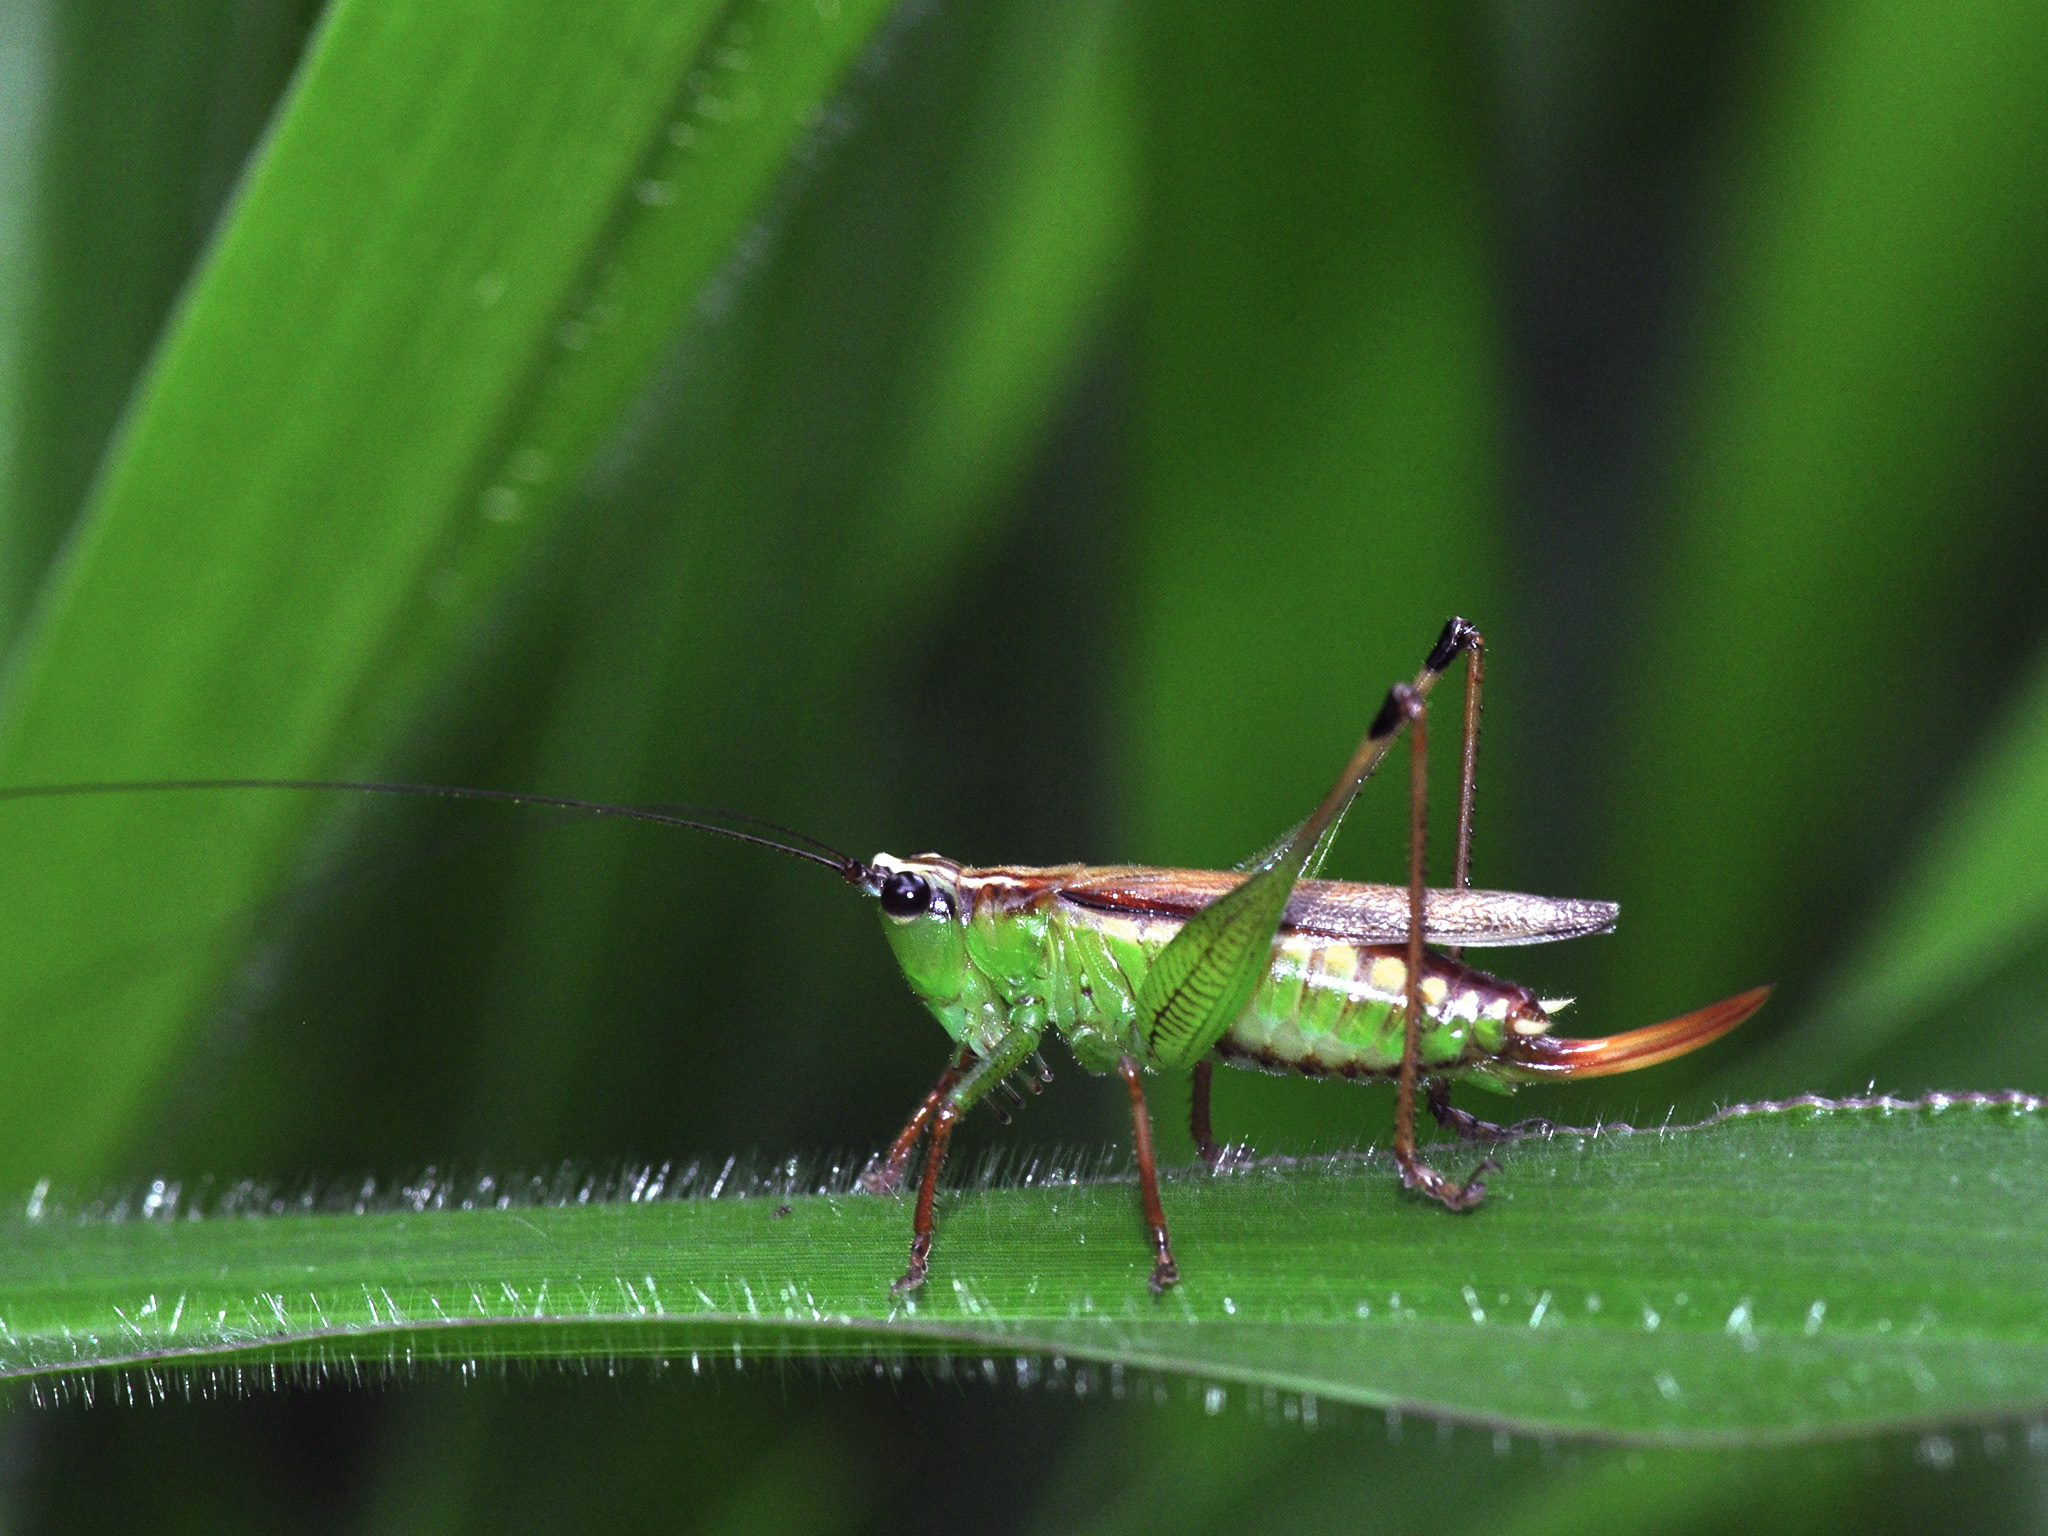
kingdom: Animalia
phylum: Arthropoda
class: Insecta
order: Orthoptera
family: Tettigoniidae
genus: Conocephalus
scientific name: Conocephalus melaenus
